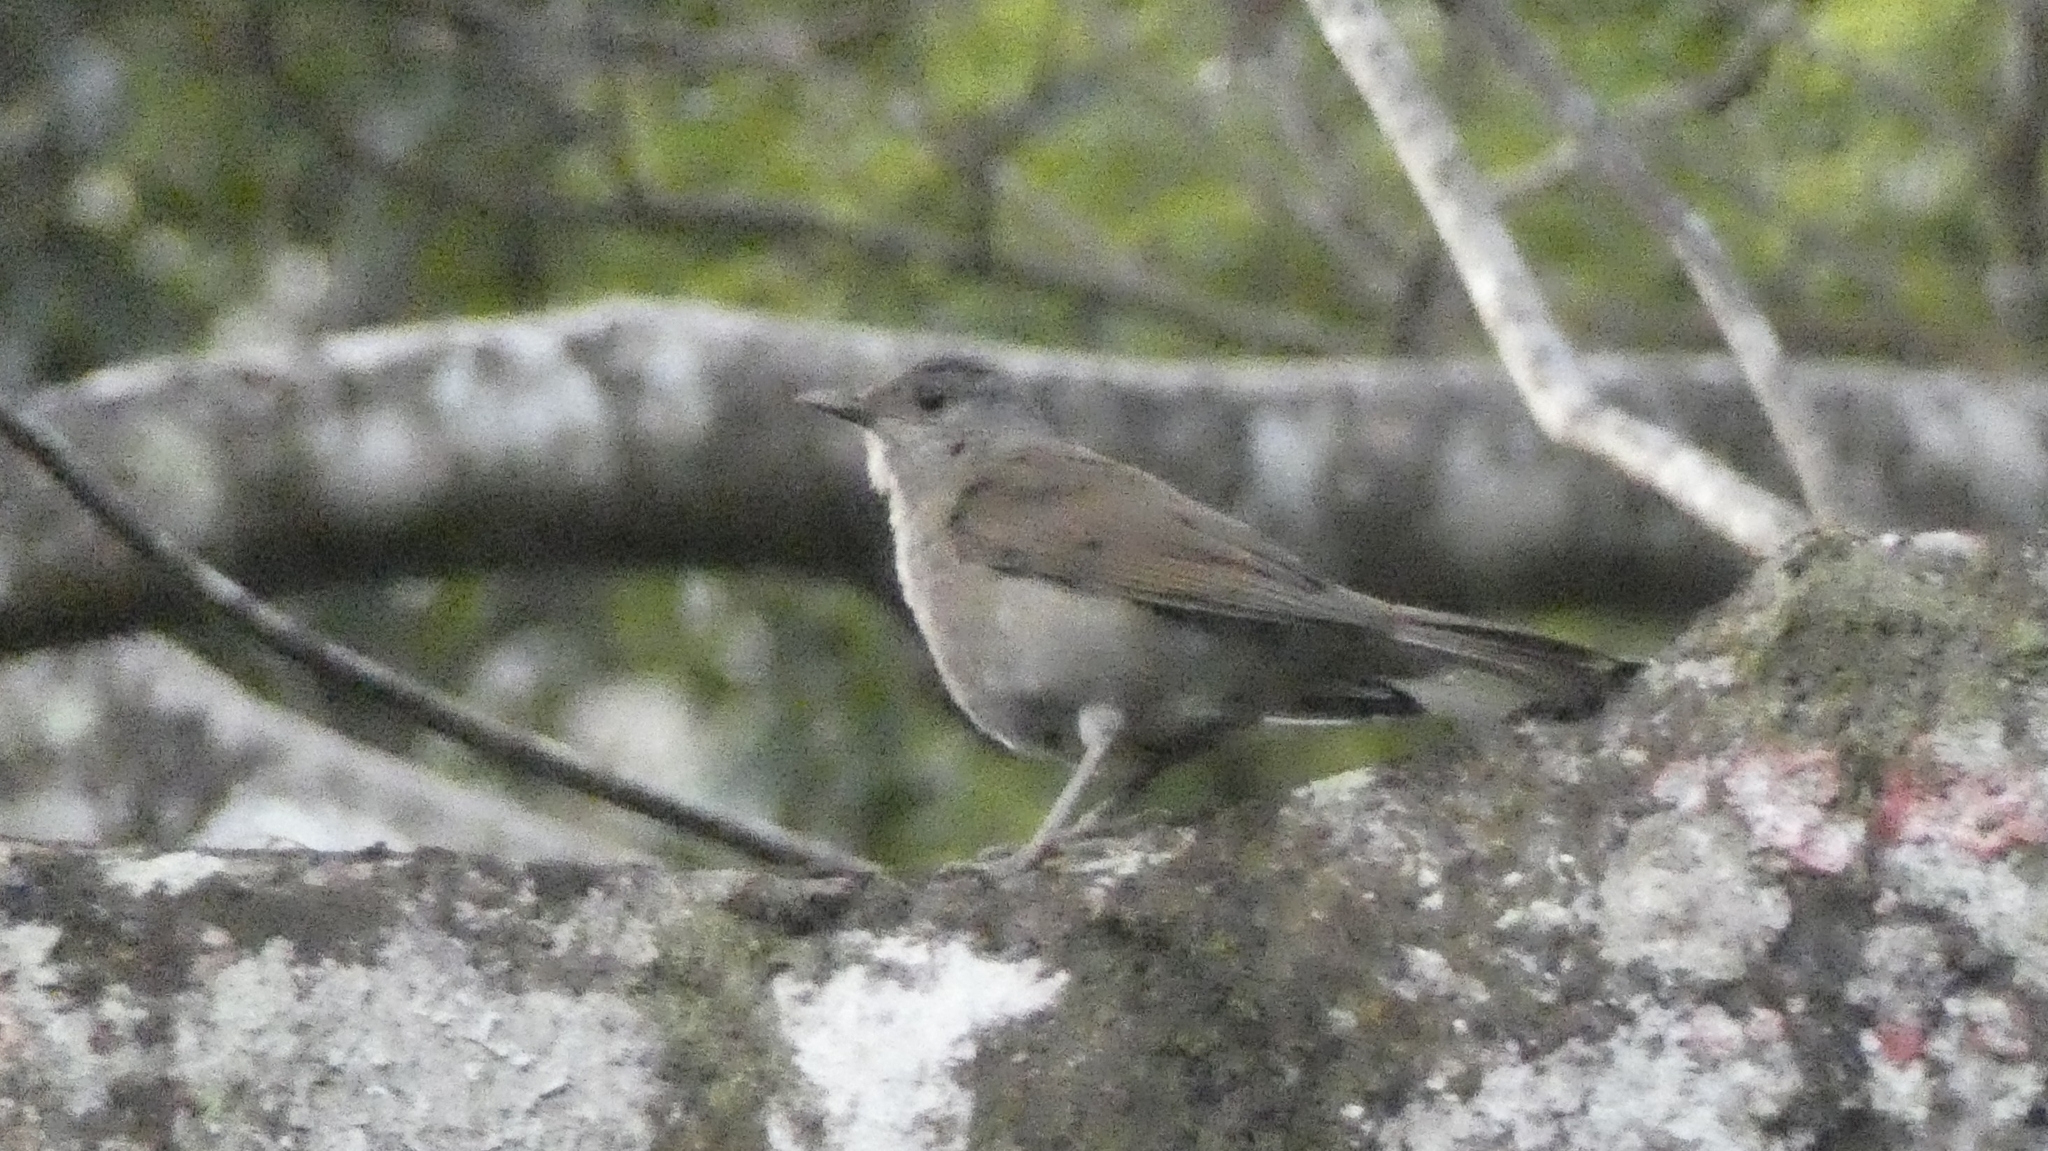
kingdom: Animalia
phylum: Chordata
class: Aves
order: Passeriformes
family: Turdidae
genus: Turdus
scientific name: Turdus leucomelas
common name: Pale-breasted thrush
